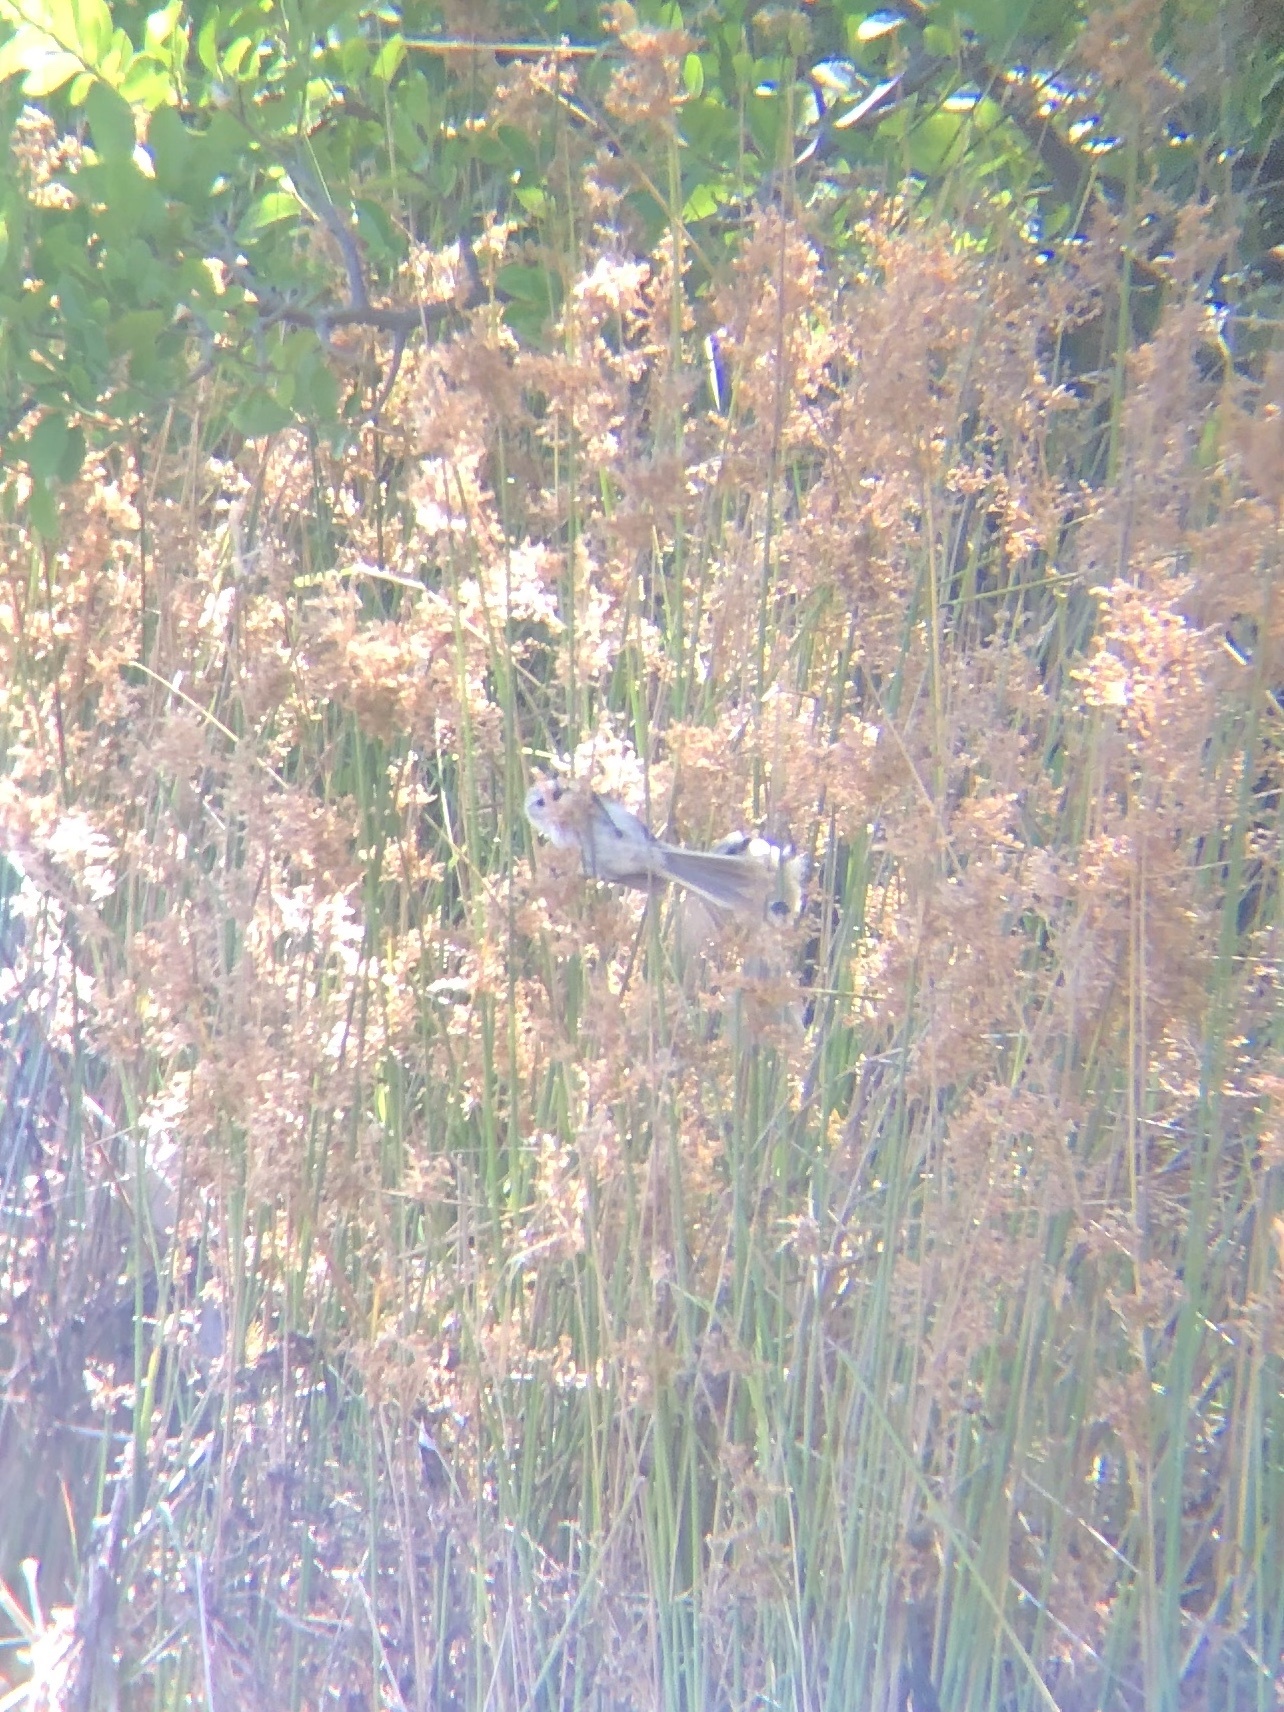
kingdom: Animalia
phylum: Chordata
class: Aves
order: Passeriformes
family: Aegithalidae
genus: Psaltriparus
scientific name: Psaltriparus minimus
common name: American bushtit
